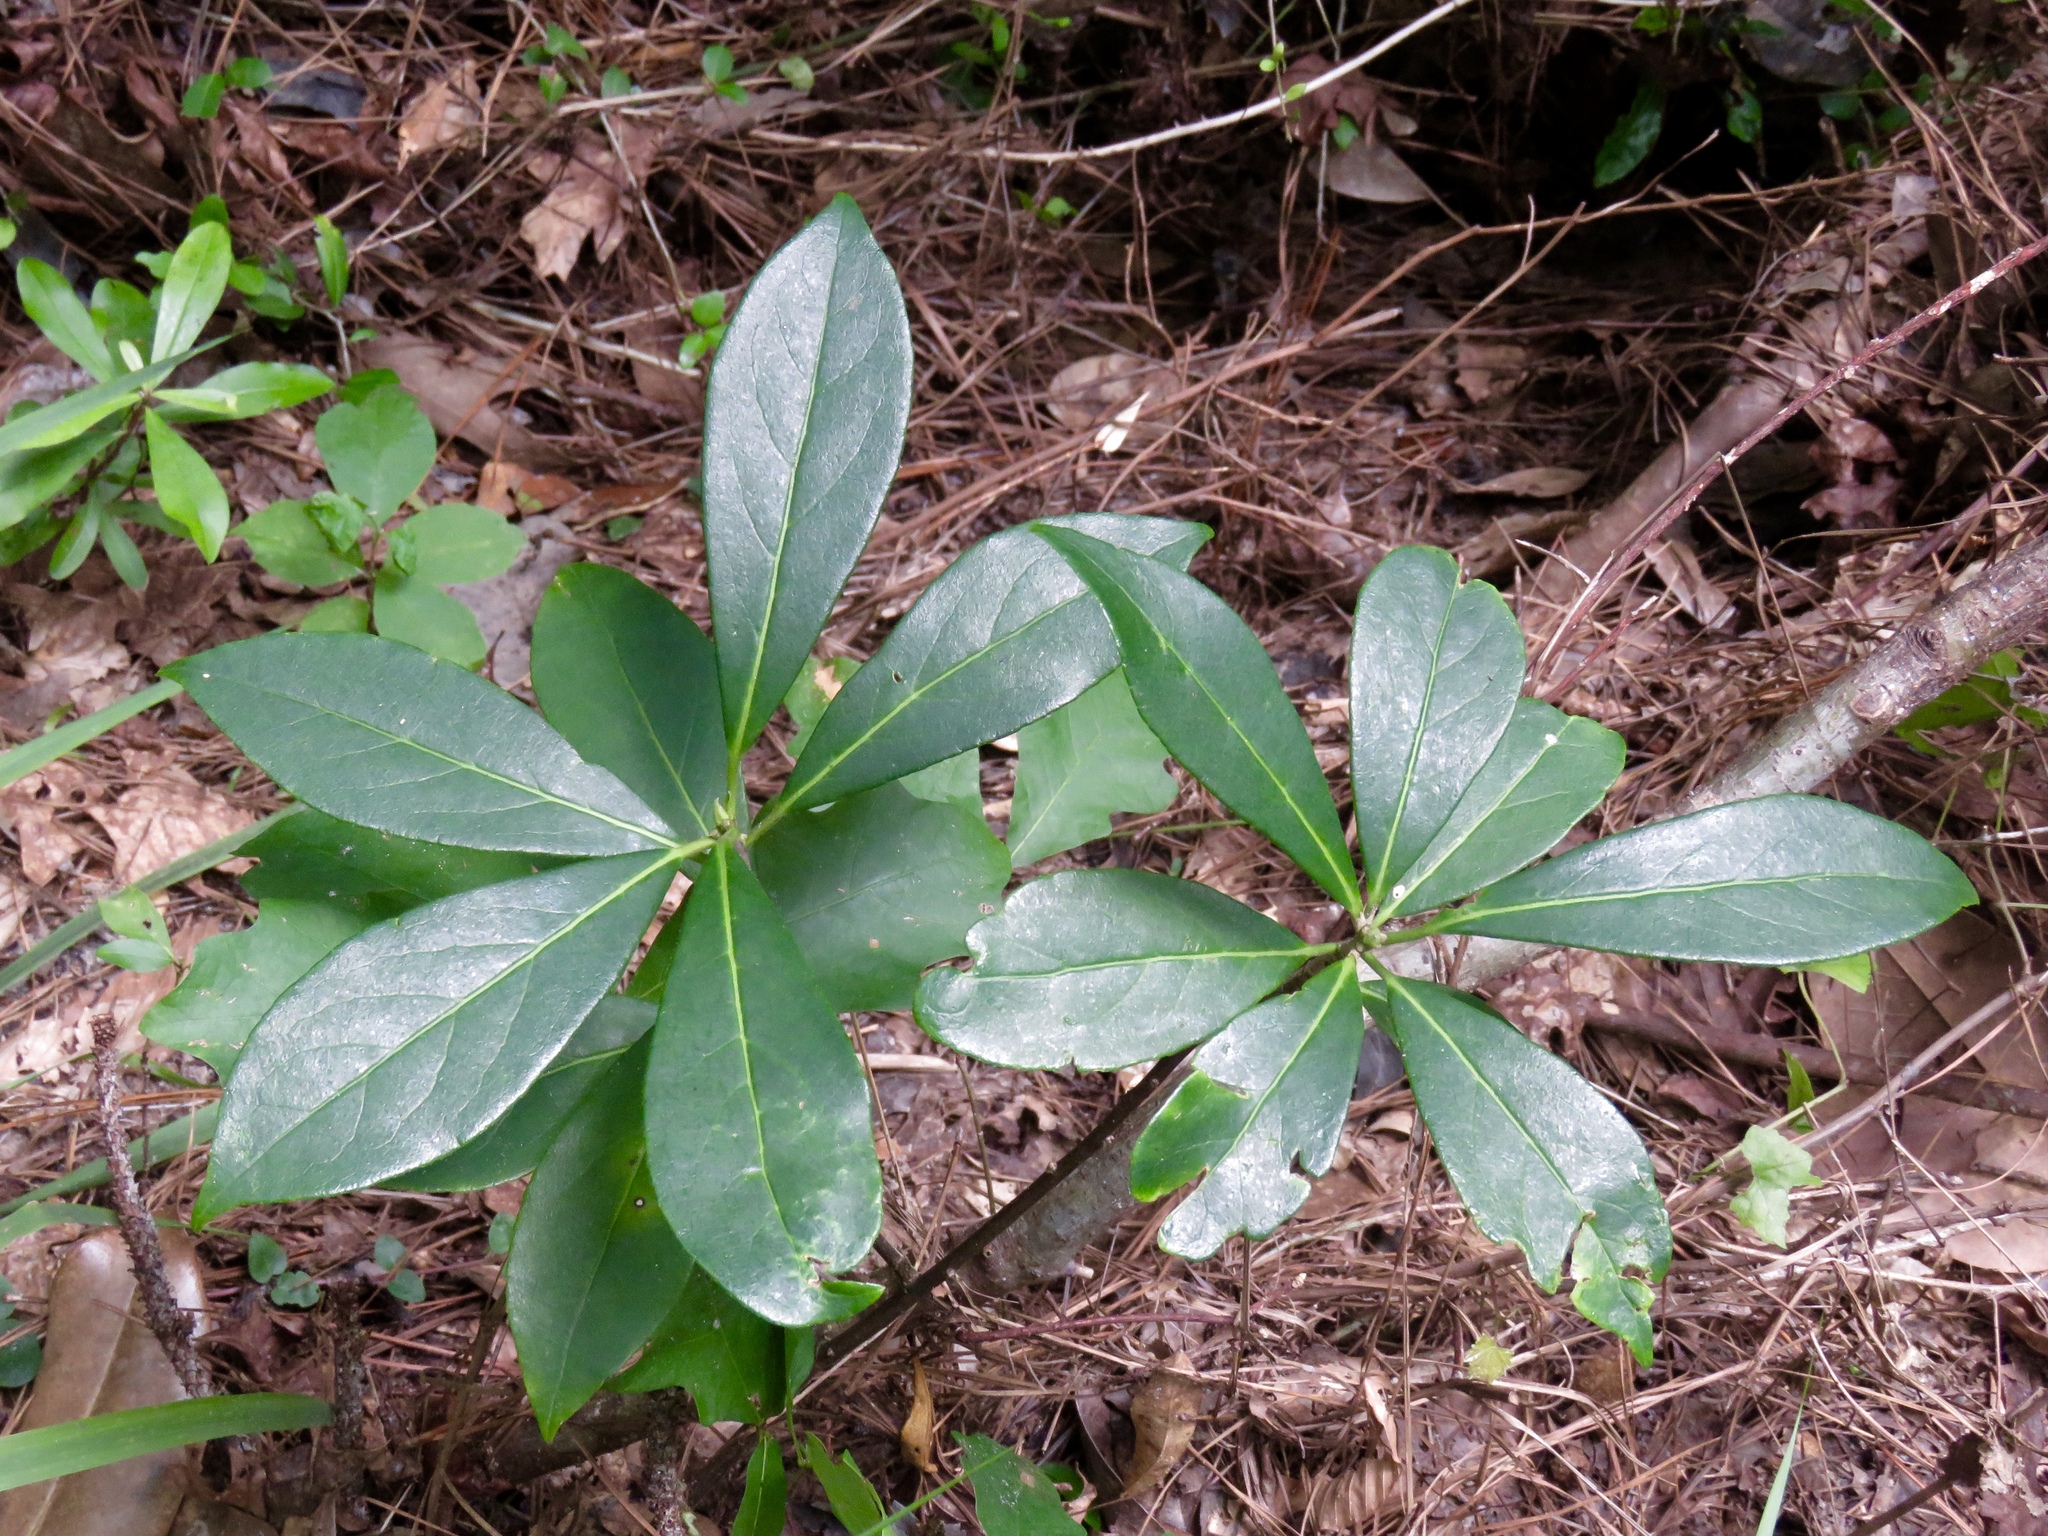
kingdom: Plantae
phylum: Tracheophyta
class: Magnoliopsida
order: Ericales
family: Symplocaceae
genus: Symplocos
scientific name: Symplocos tinctoria
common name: Horse-sugar
